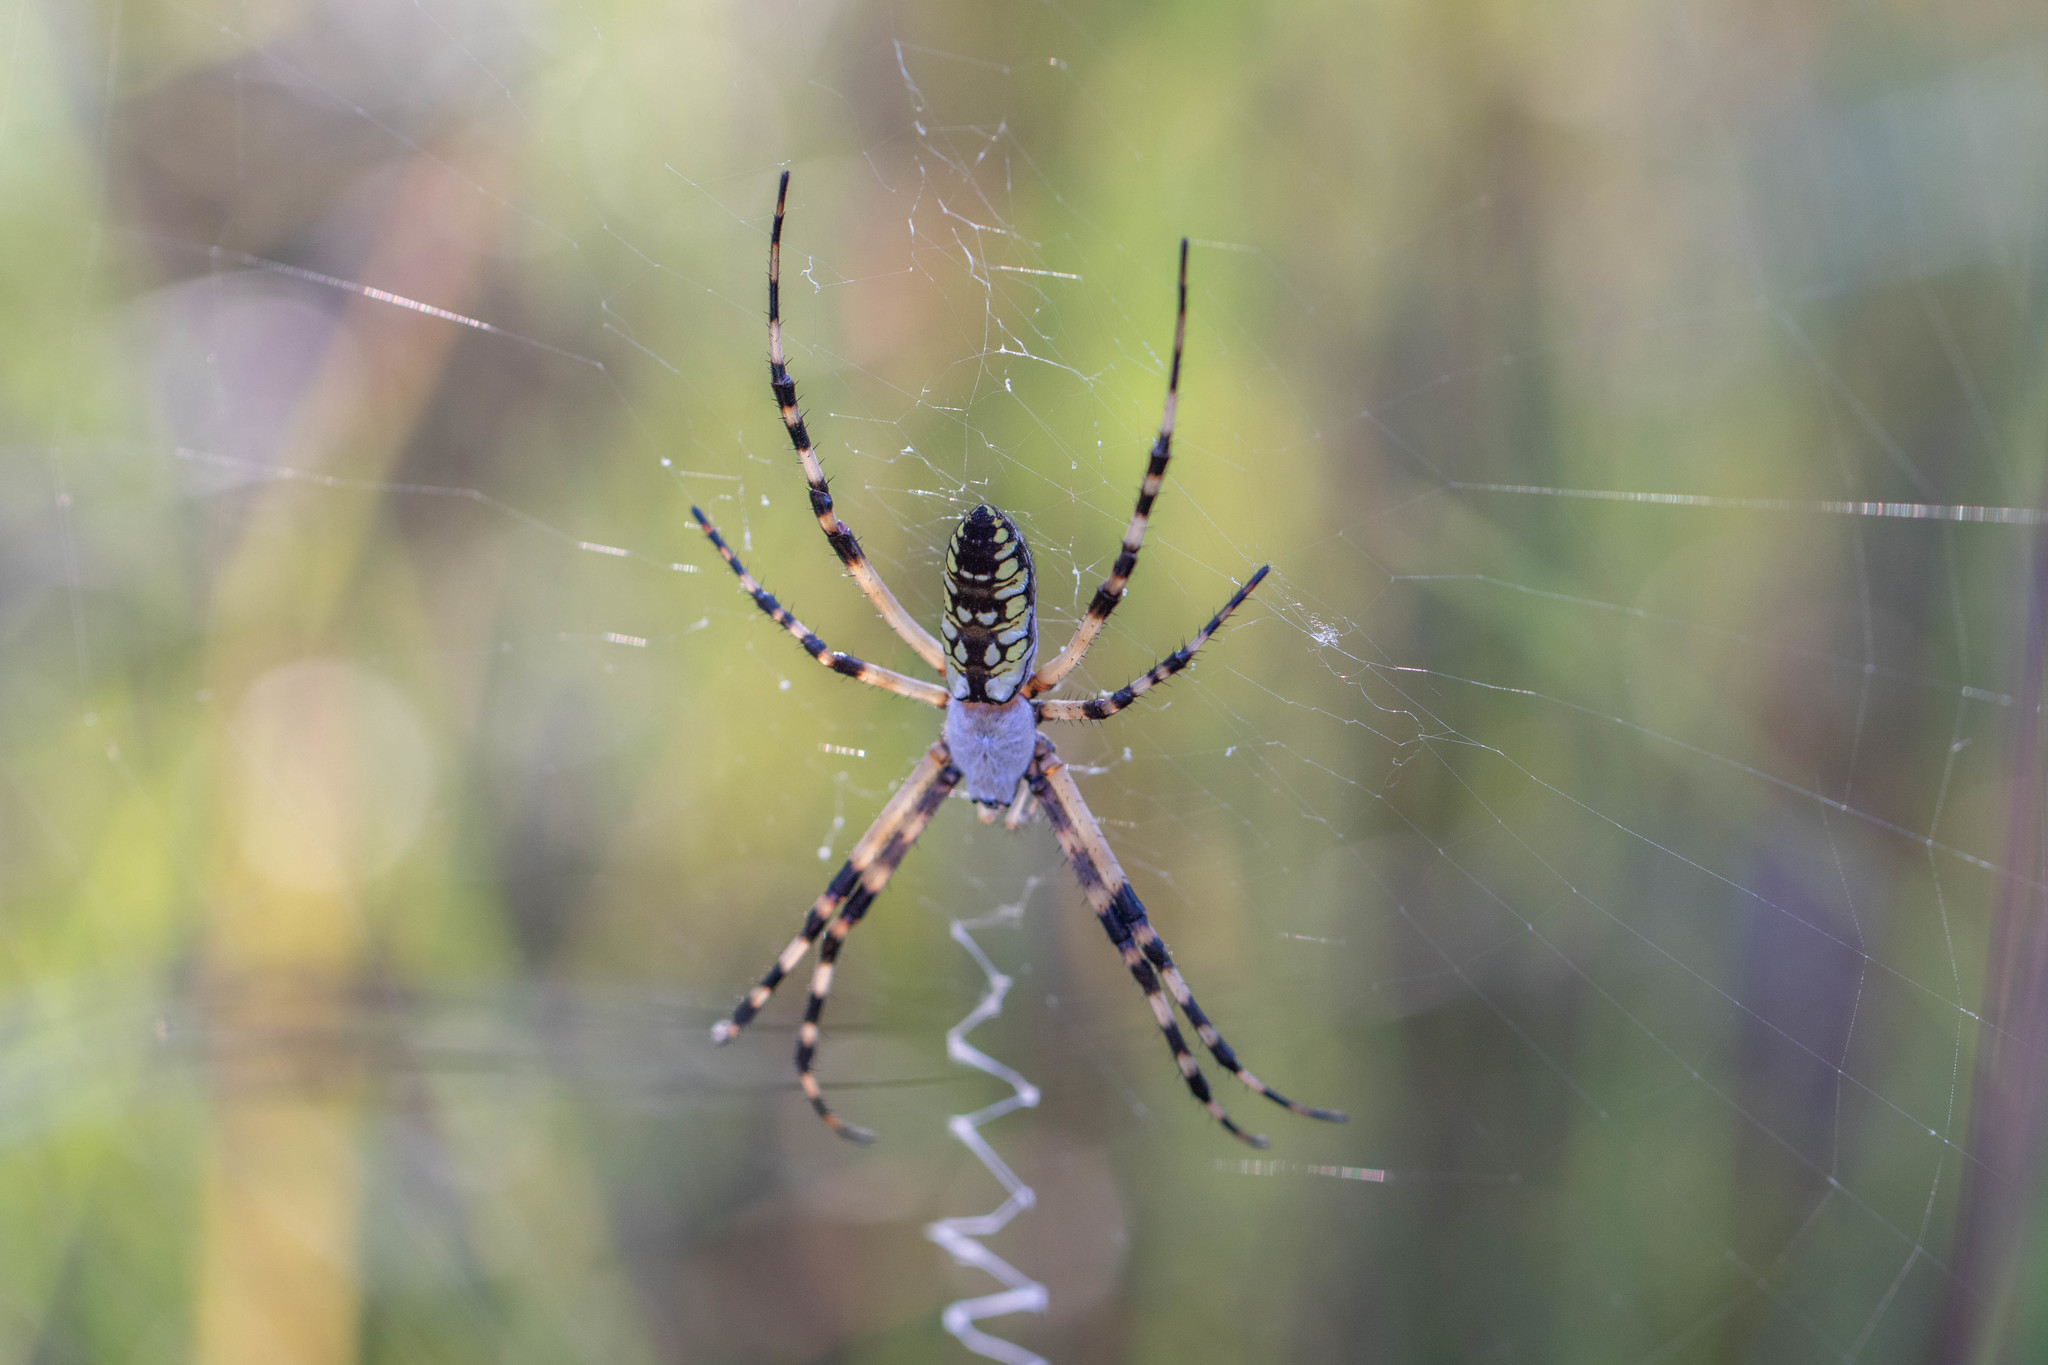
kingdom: Animalia
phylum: Arthropoda
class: Arachnida
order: Araneae
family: Araneidae
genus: Argiope
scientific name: Argiope aurantia
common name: Orb weavers
